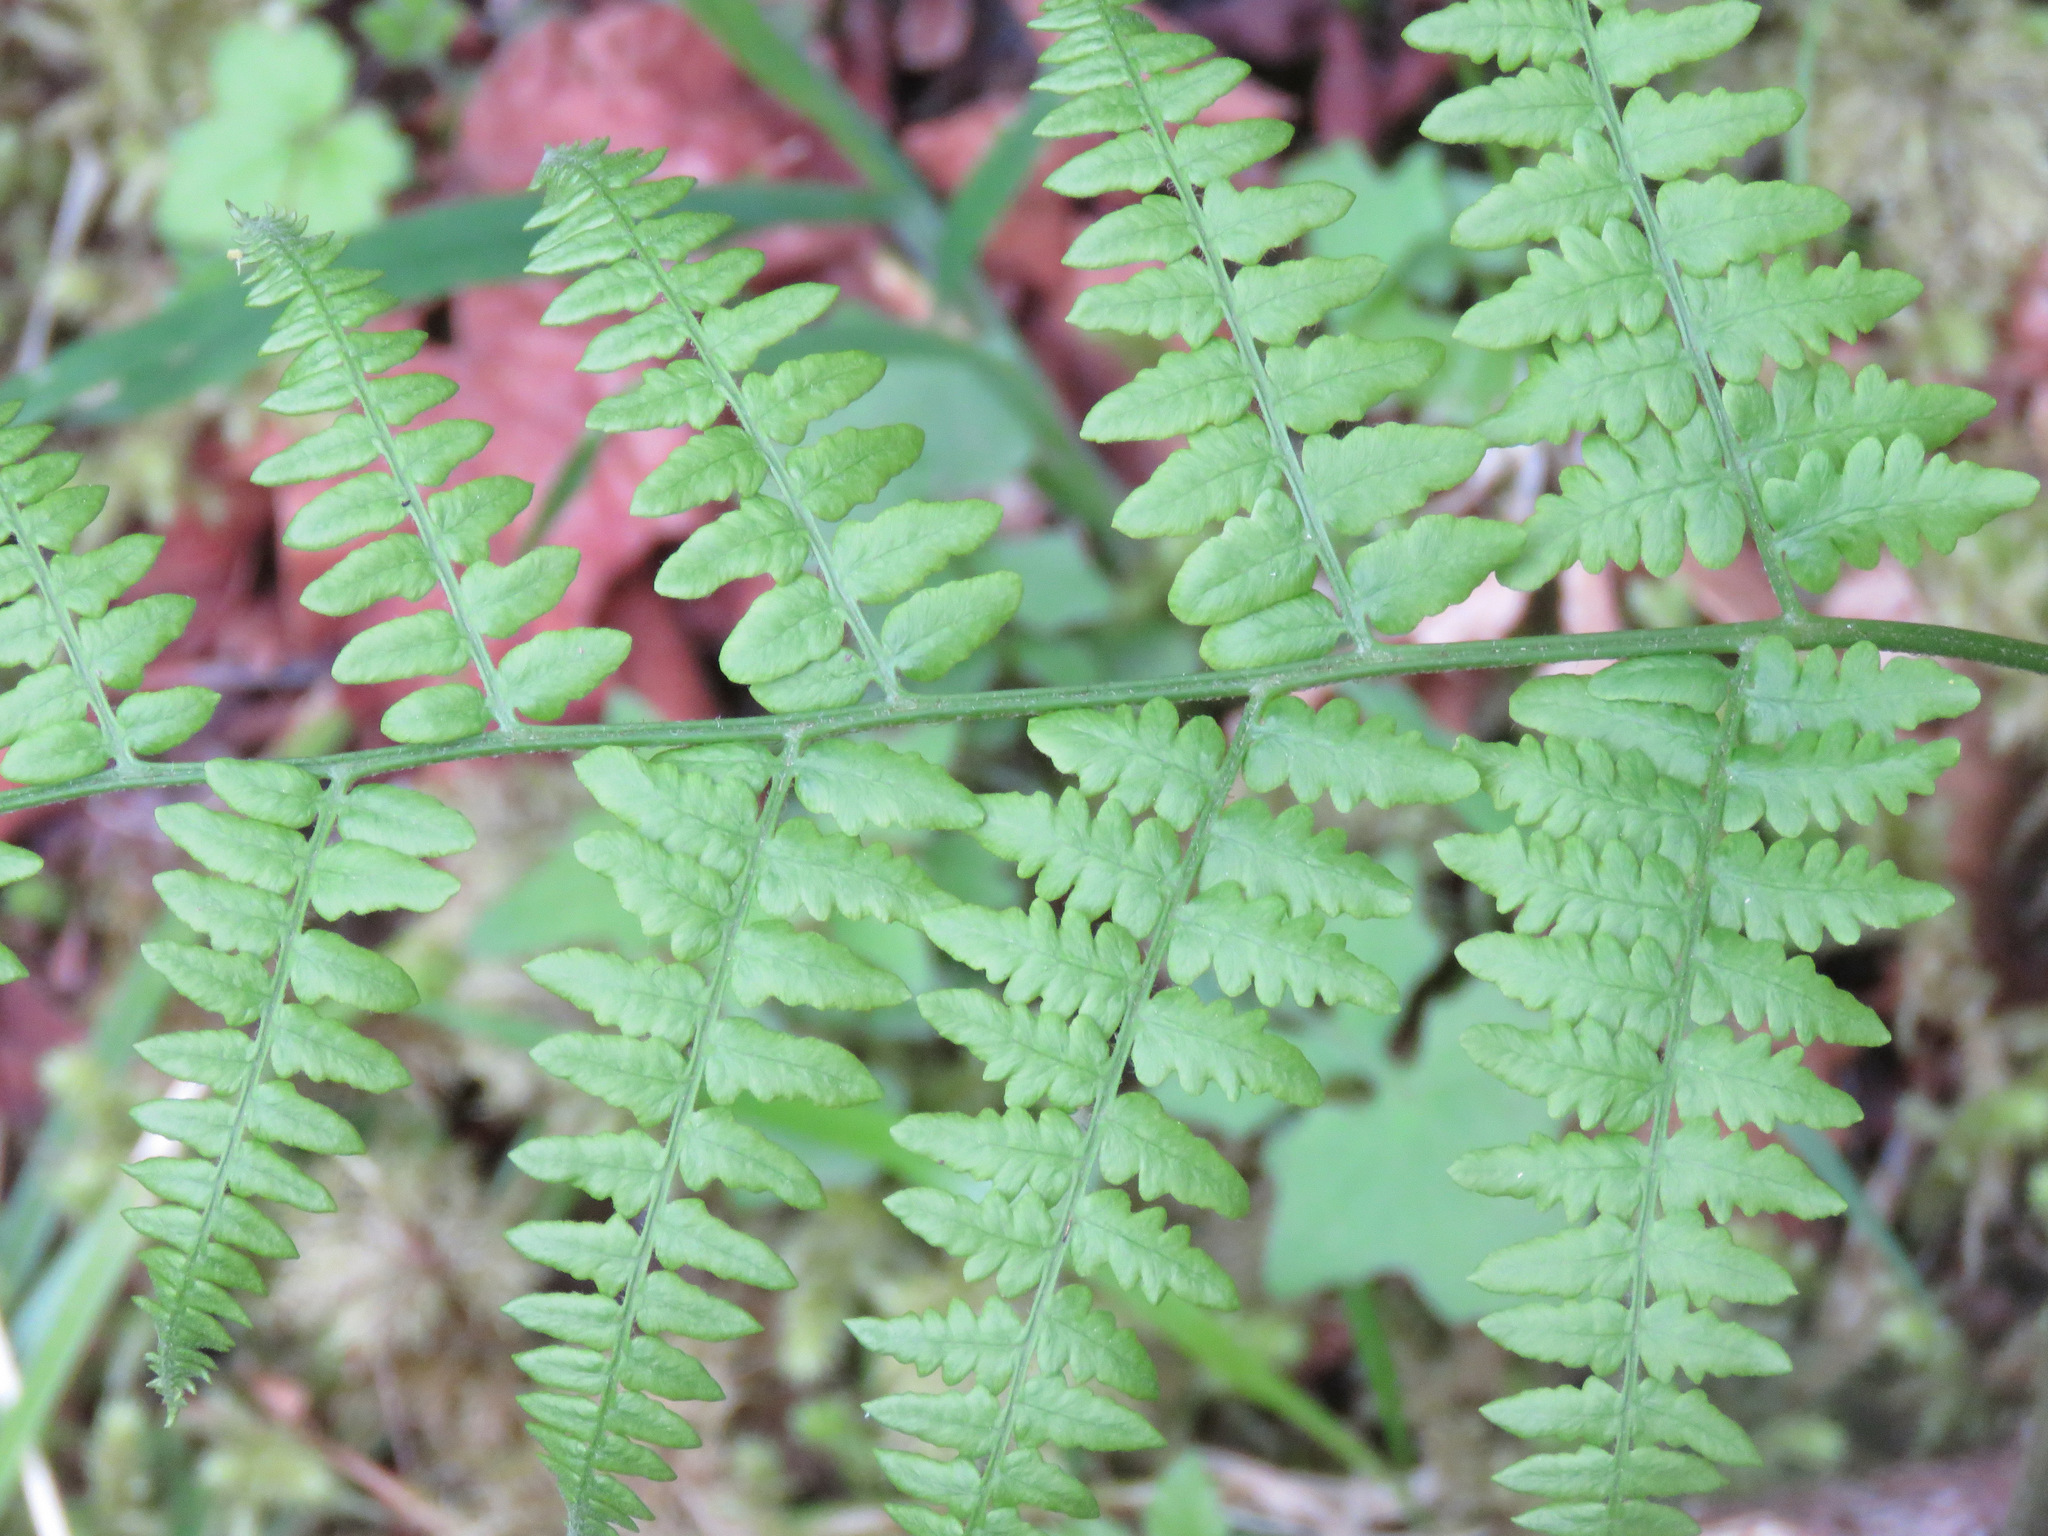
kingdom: Plantae
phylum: Tracheophyta
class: Polypodiopsida
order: Polypodiales
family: Dennstaedtiaceae
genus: Pteridium
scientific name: Pteridium aquilinum
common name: Bracken
